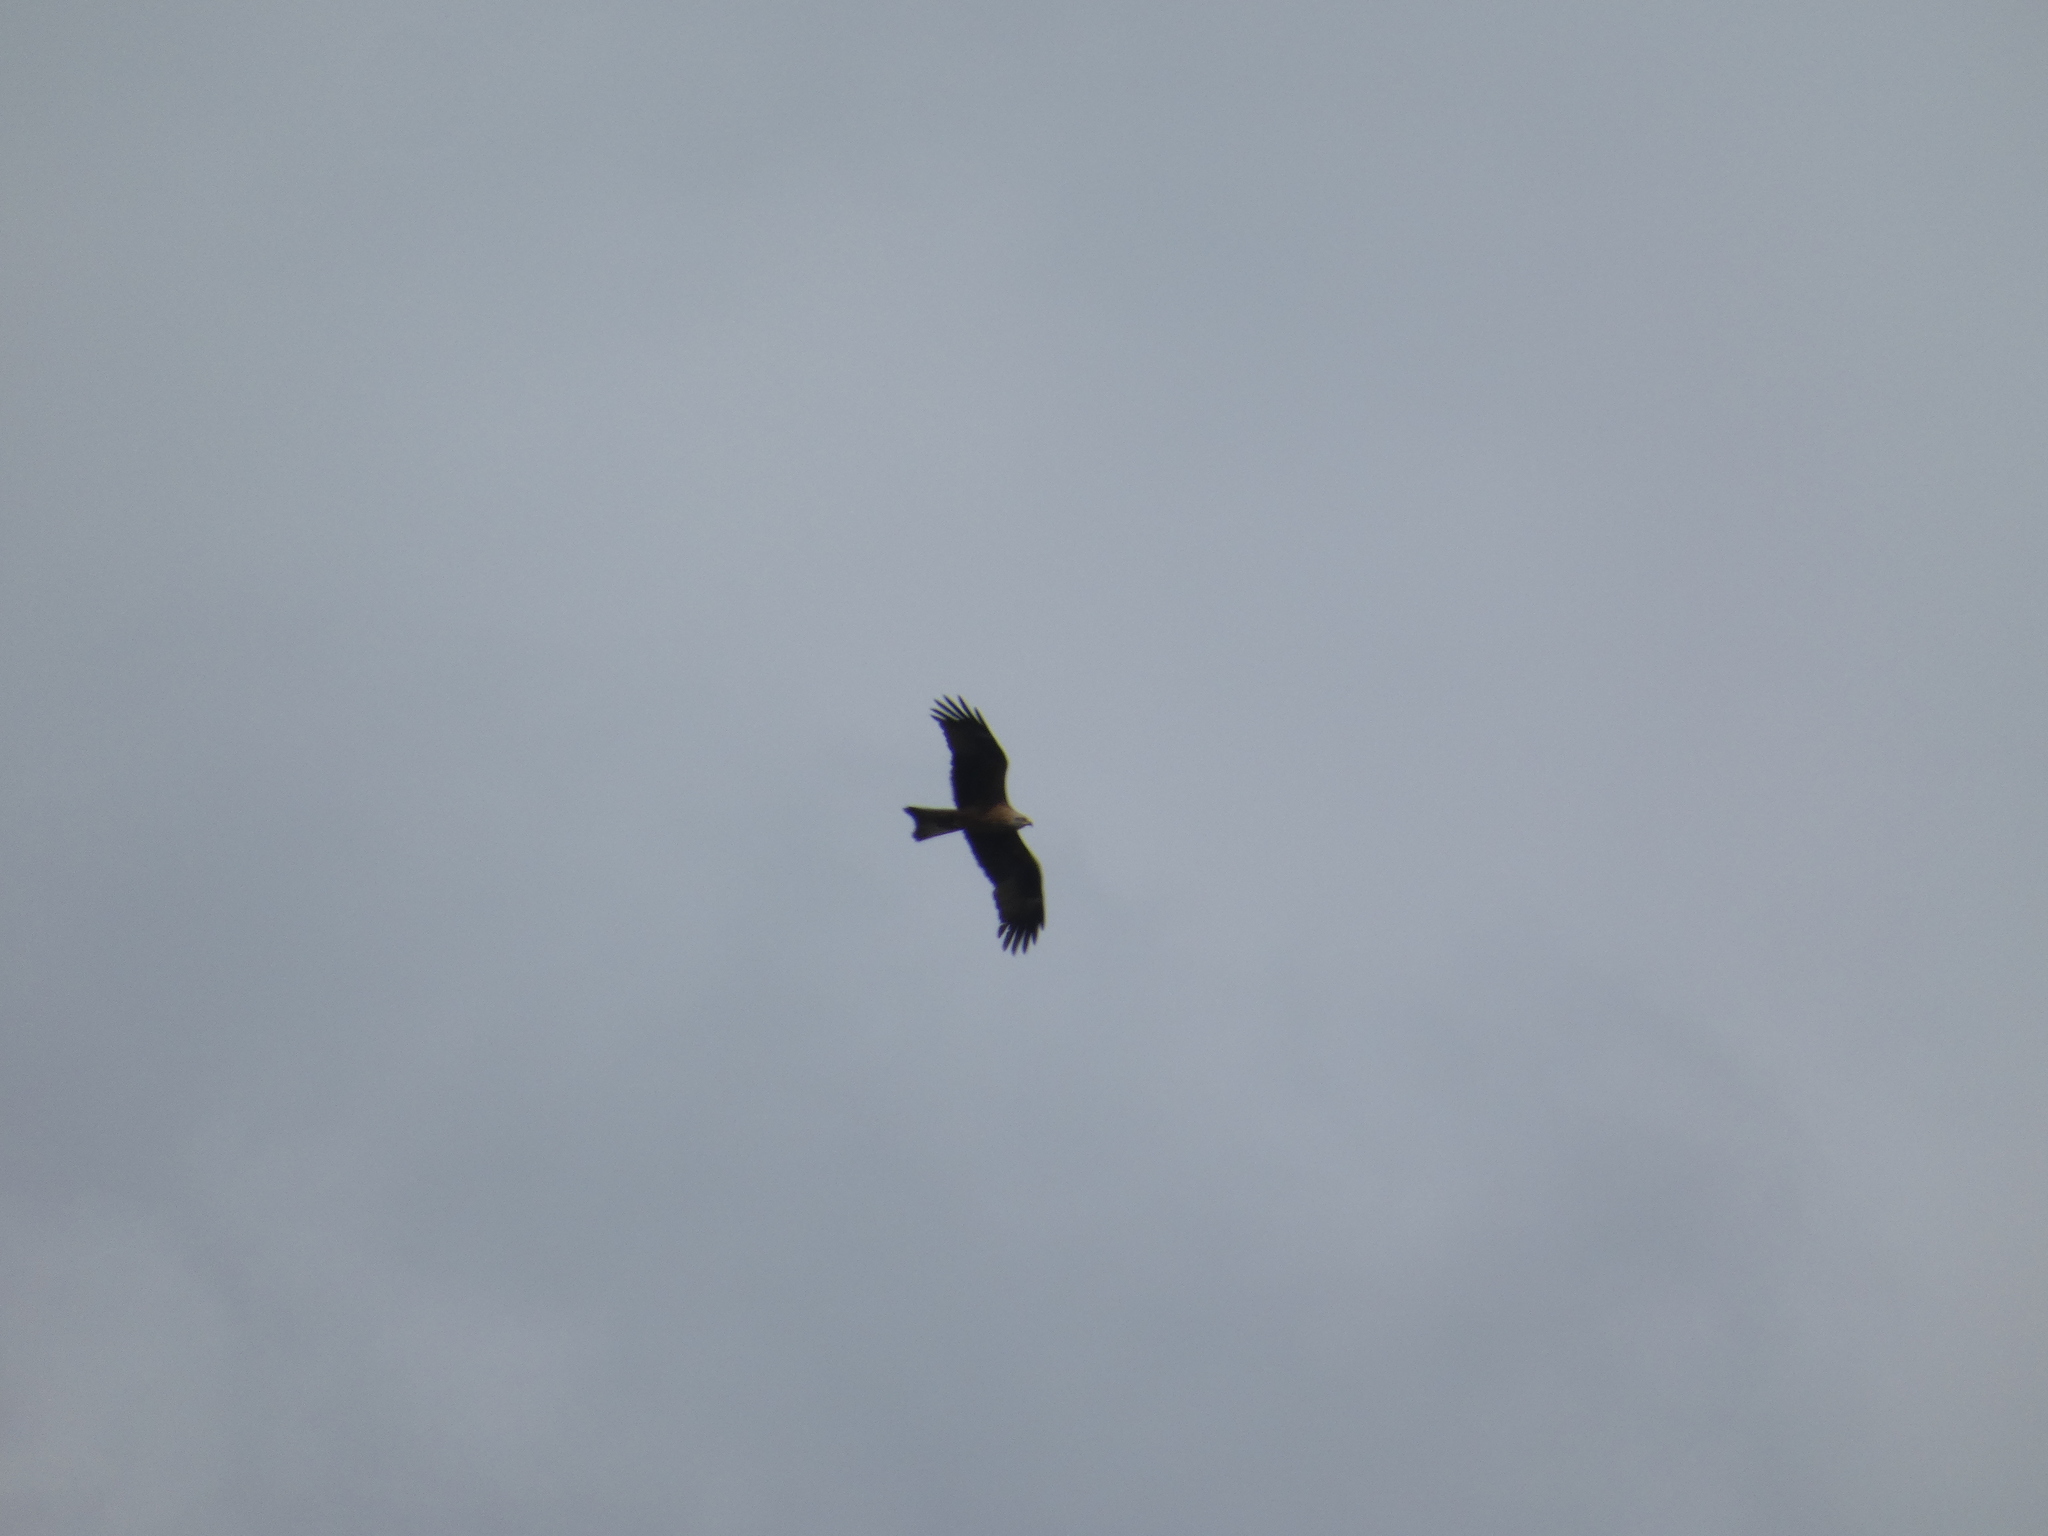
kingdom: Animalia
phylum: Chordata
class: Aves
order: Accipitriformes
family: Accipitridae
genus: Milvus
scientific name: Milvus migrans
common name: Black kite
